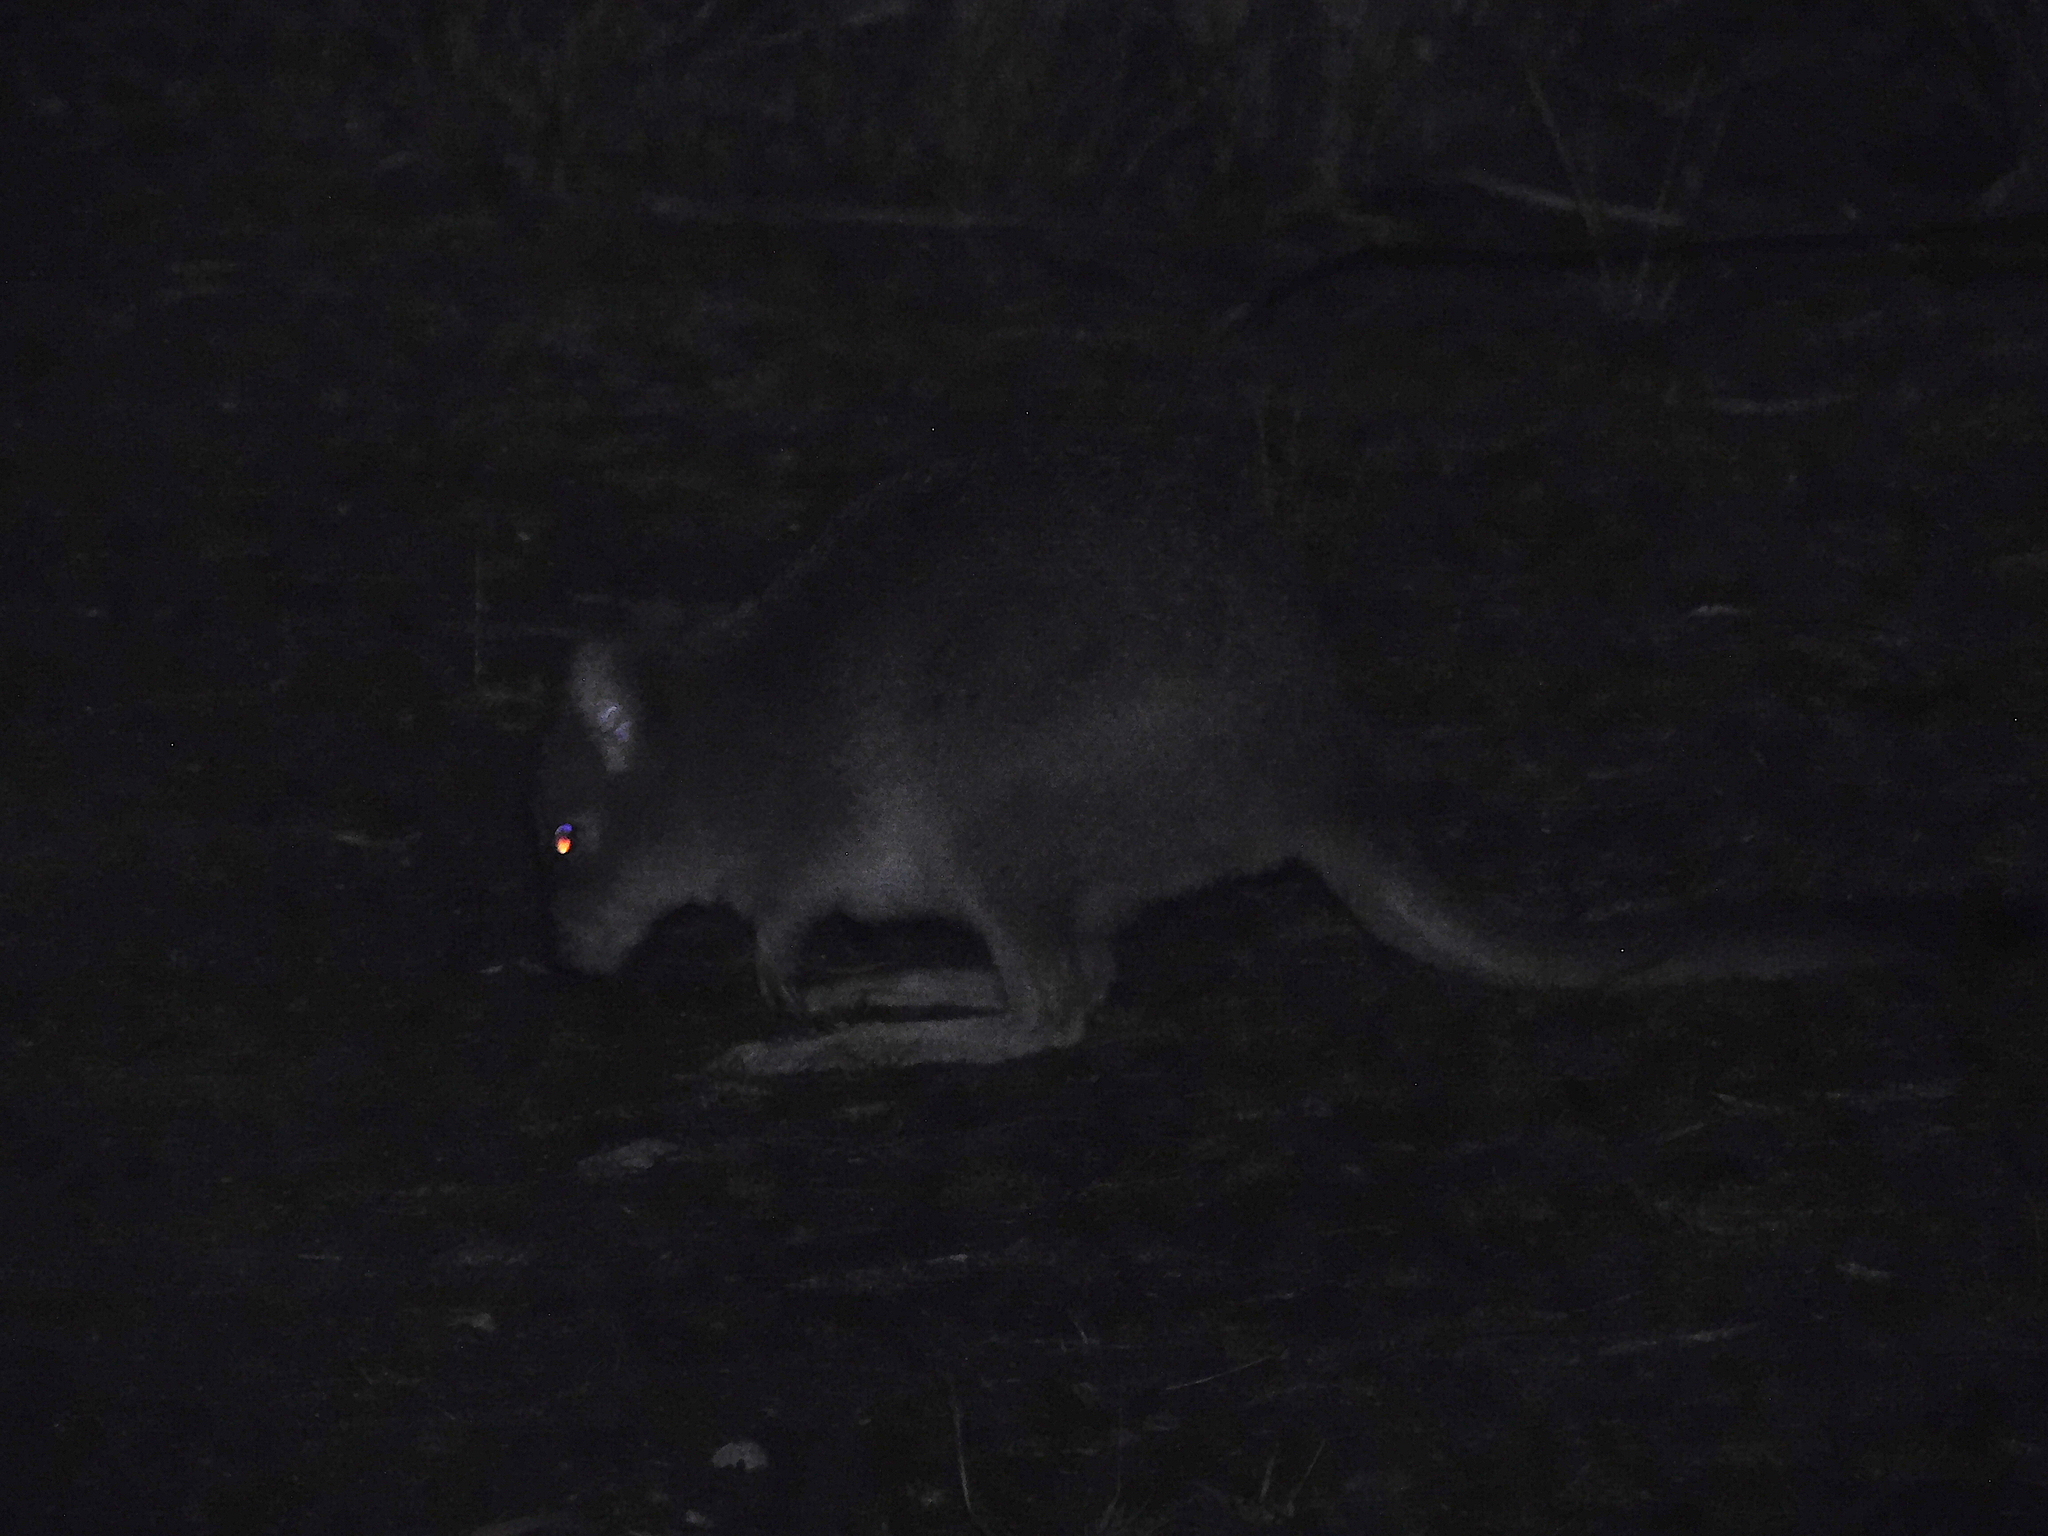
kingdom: Animalia
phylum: Chordata
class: Mammalia
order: Diprotodontia
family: Potoroidae
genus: Bettongia
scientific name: Bettongia gaimardi
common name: Eastern bettong
